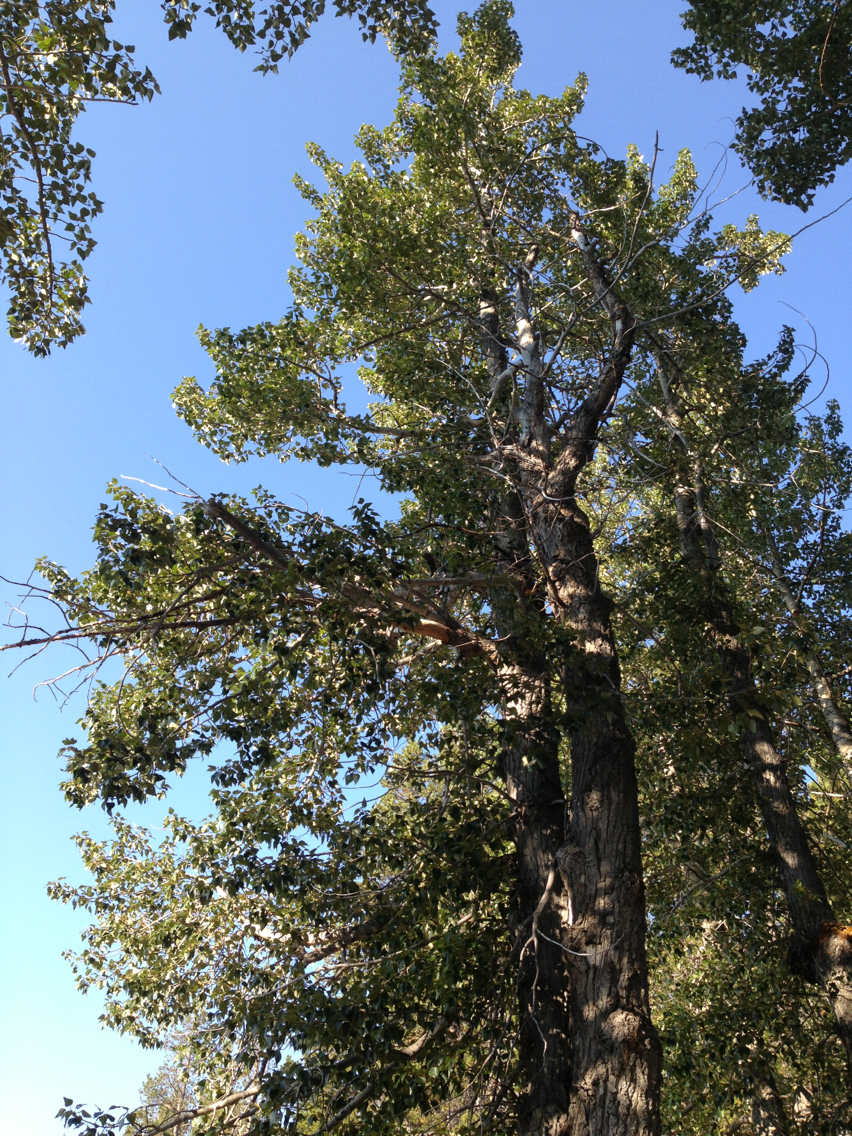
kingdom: Plantae
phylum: Tracheophyta
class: Magnoliopsida
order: Malpighiales
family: Salicaceae
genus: Populus
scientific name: Populus trichocarpa
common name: Black cottonwood
